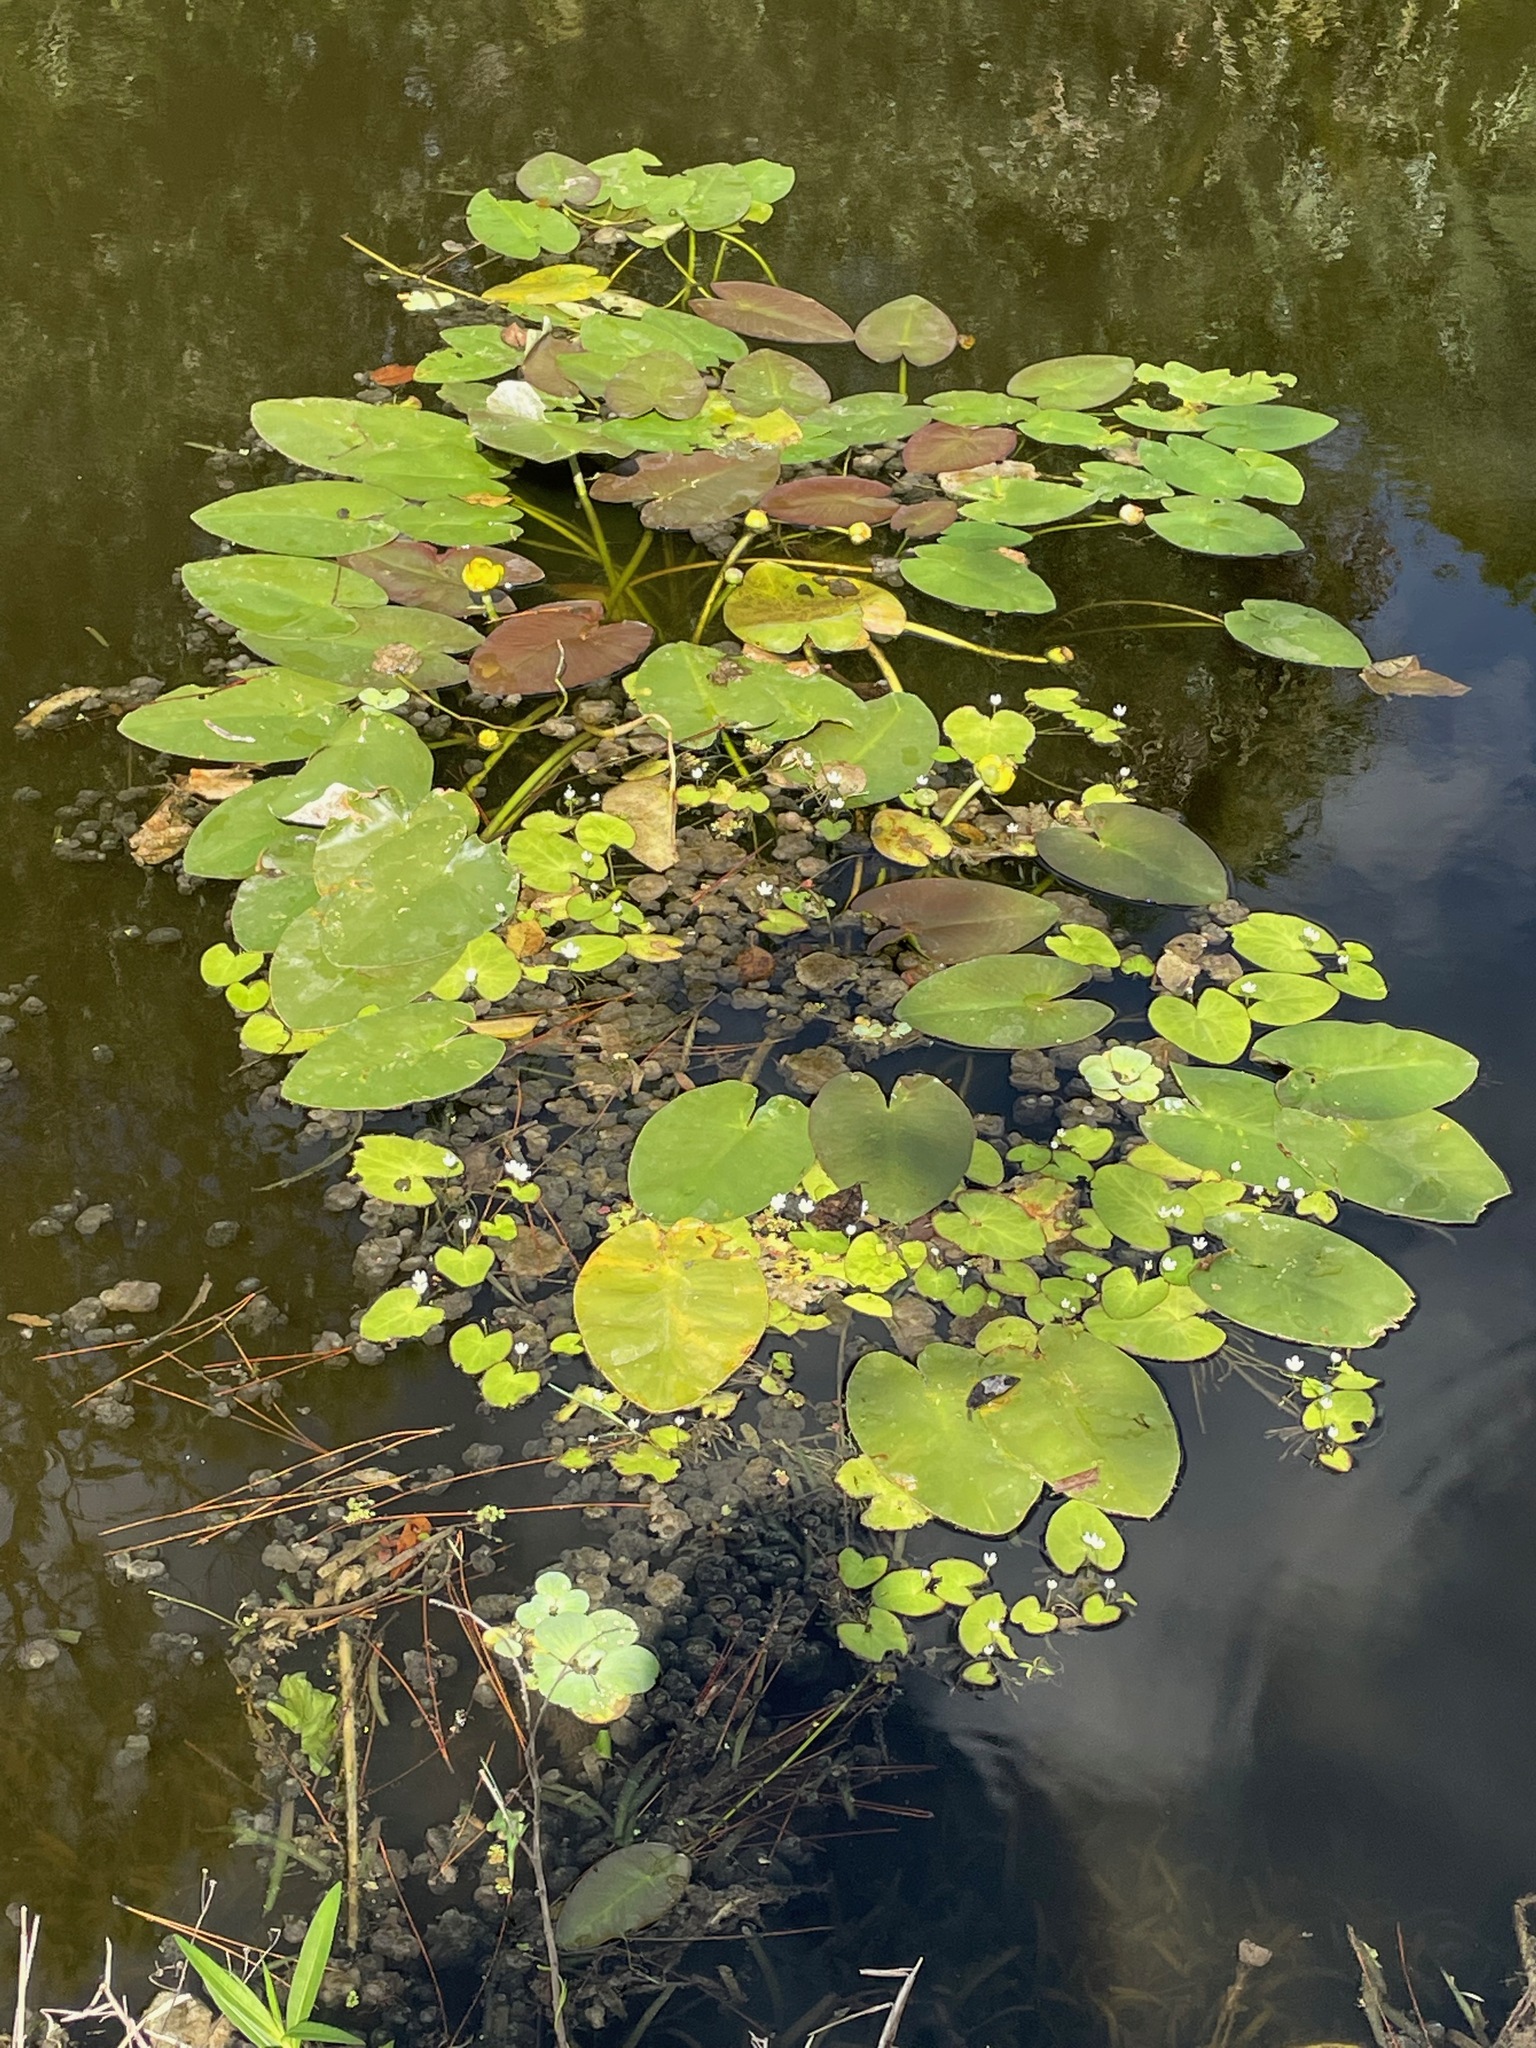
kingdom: Plantae
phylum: Tracheophyta
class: Magnoliopsida
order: Nymphaeales
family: Nymphaeaceae
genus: Nuphar
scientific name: Nuphar advena
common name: Spatter-dock
